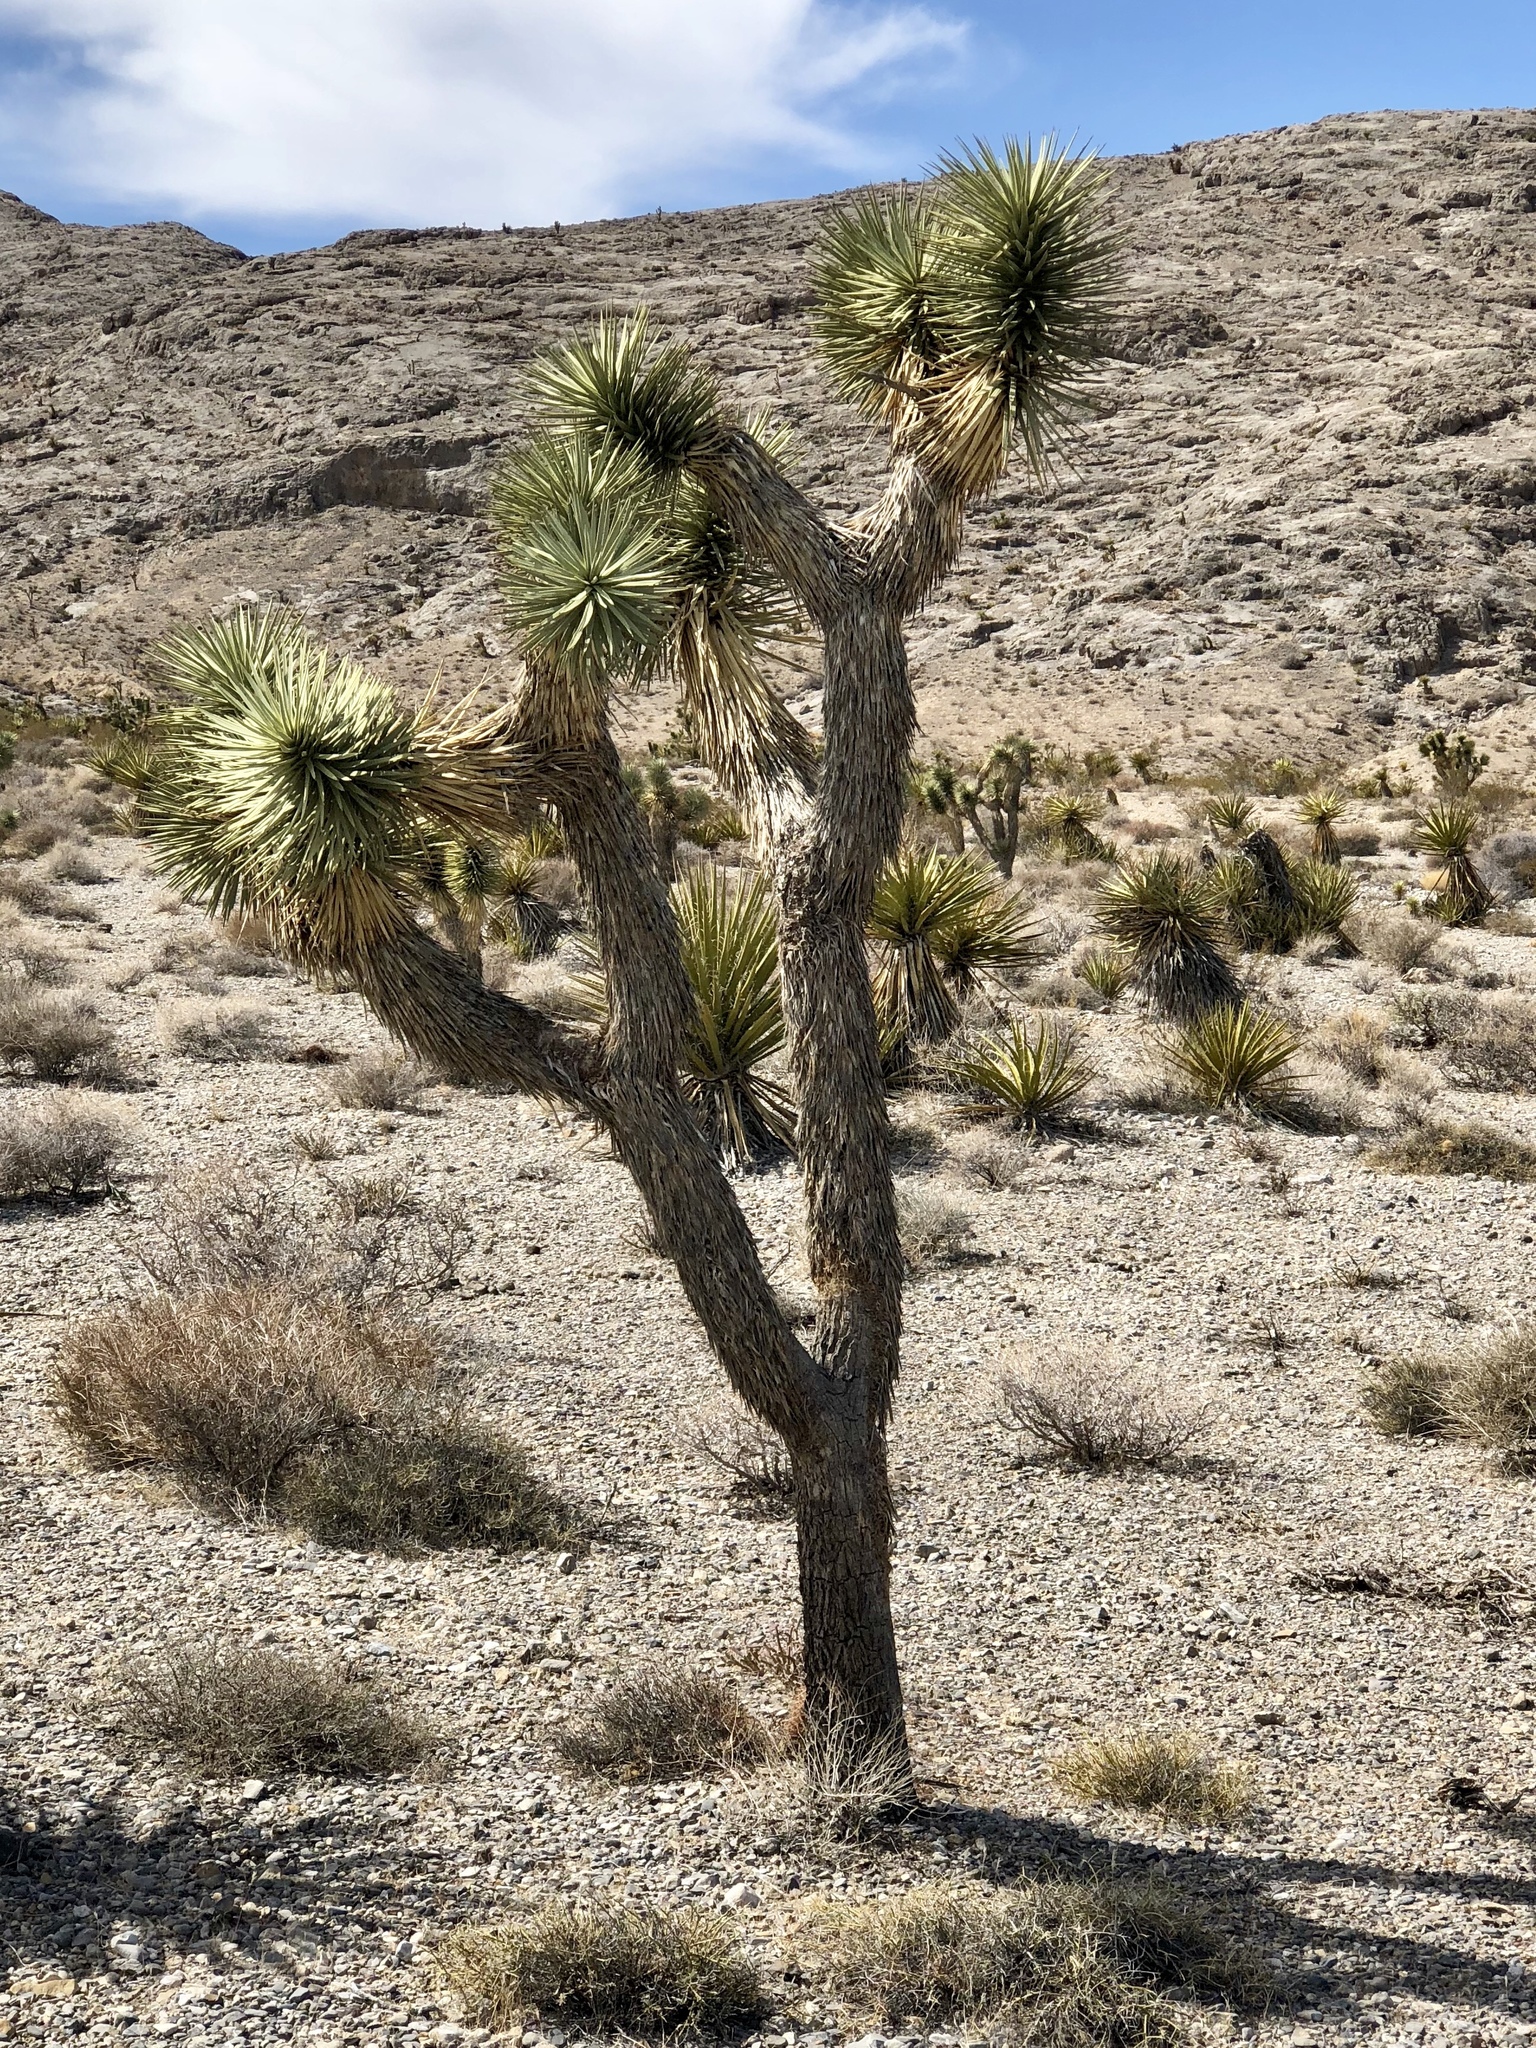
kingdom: Plantae
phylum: Tracheophyta
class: Liliopsida
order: Asparagales
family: Asparagaceae
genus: Yucca
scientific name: Yucca brevifolia
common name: Joshua tree
